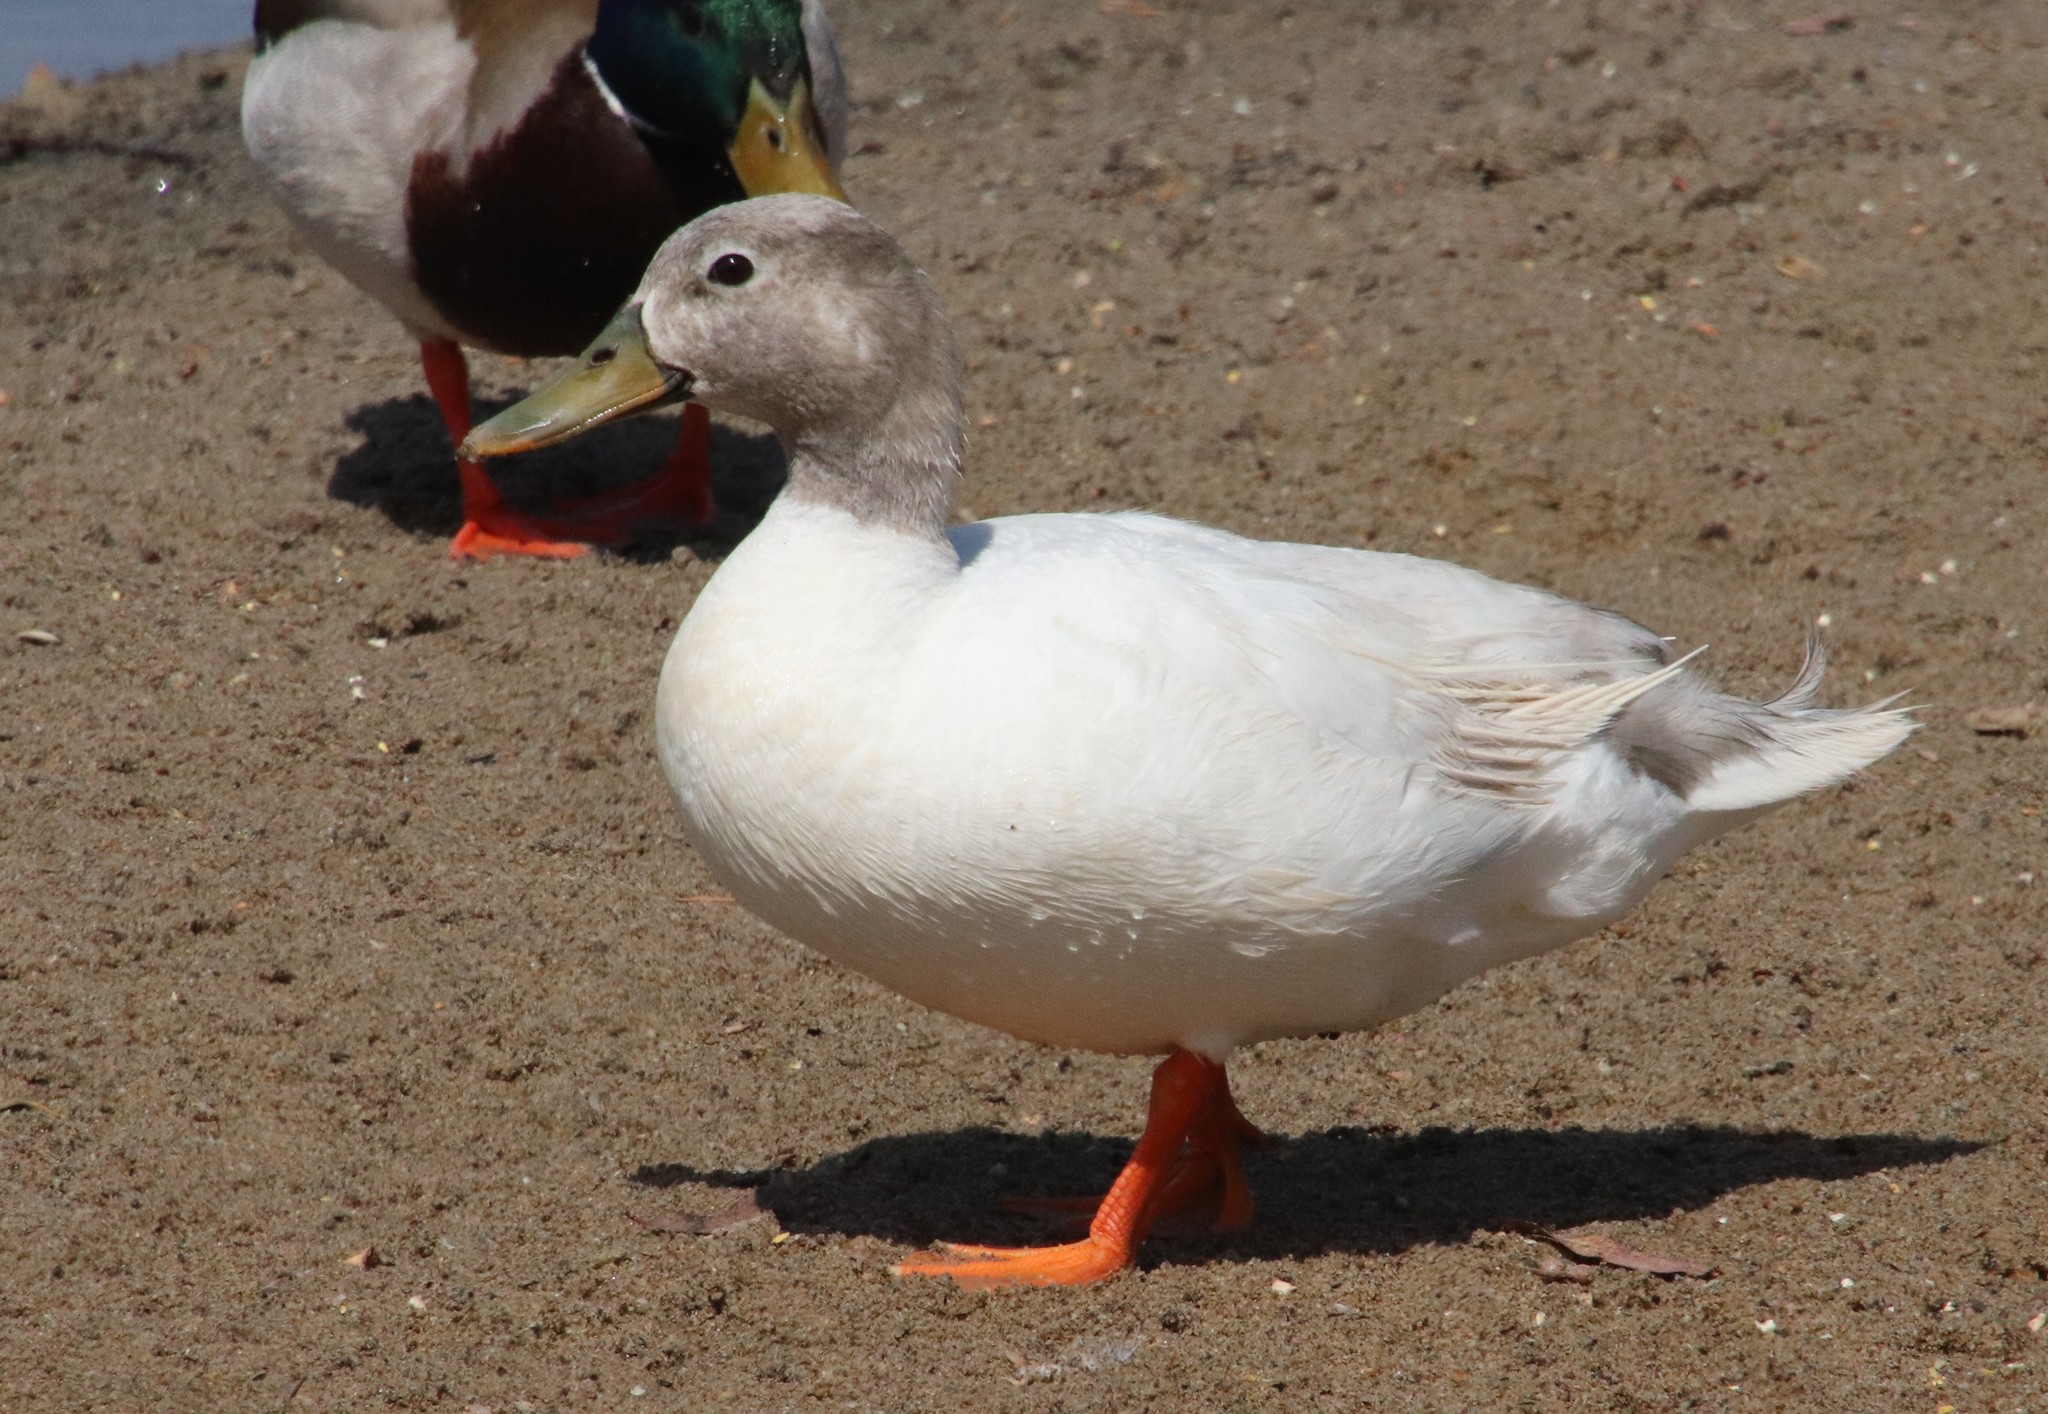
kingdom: Animalia
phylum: Chordata
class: Aves
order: Anseriformes
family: Anatidae
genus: Anas
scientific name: Anas platyrhynchos
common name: Mallard
